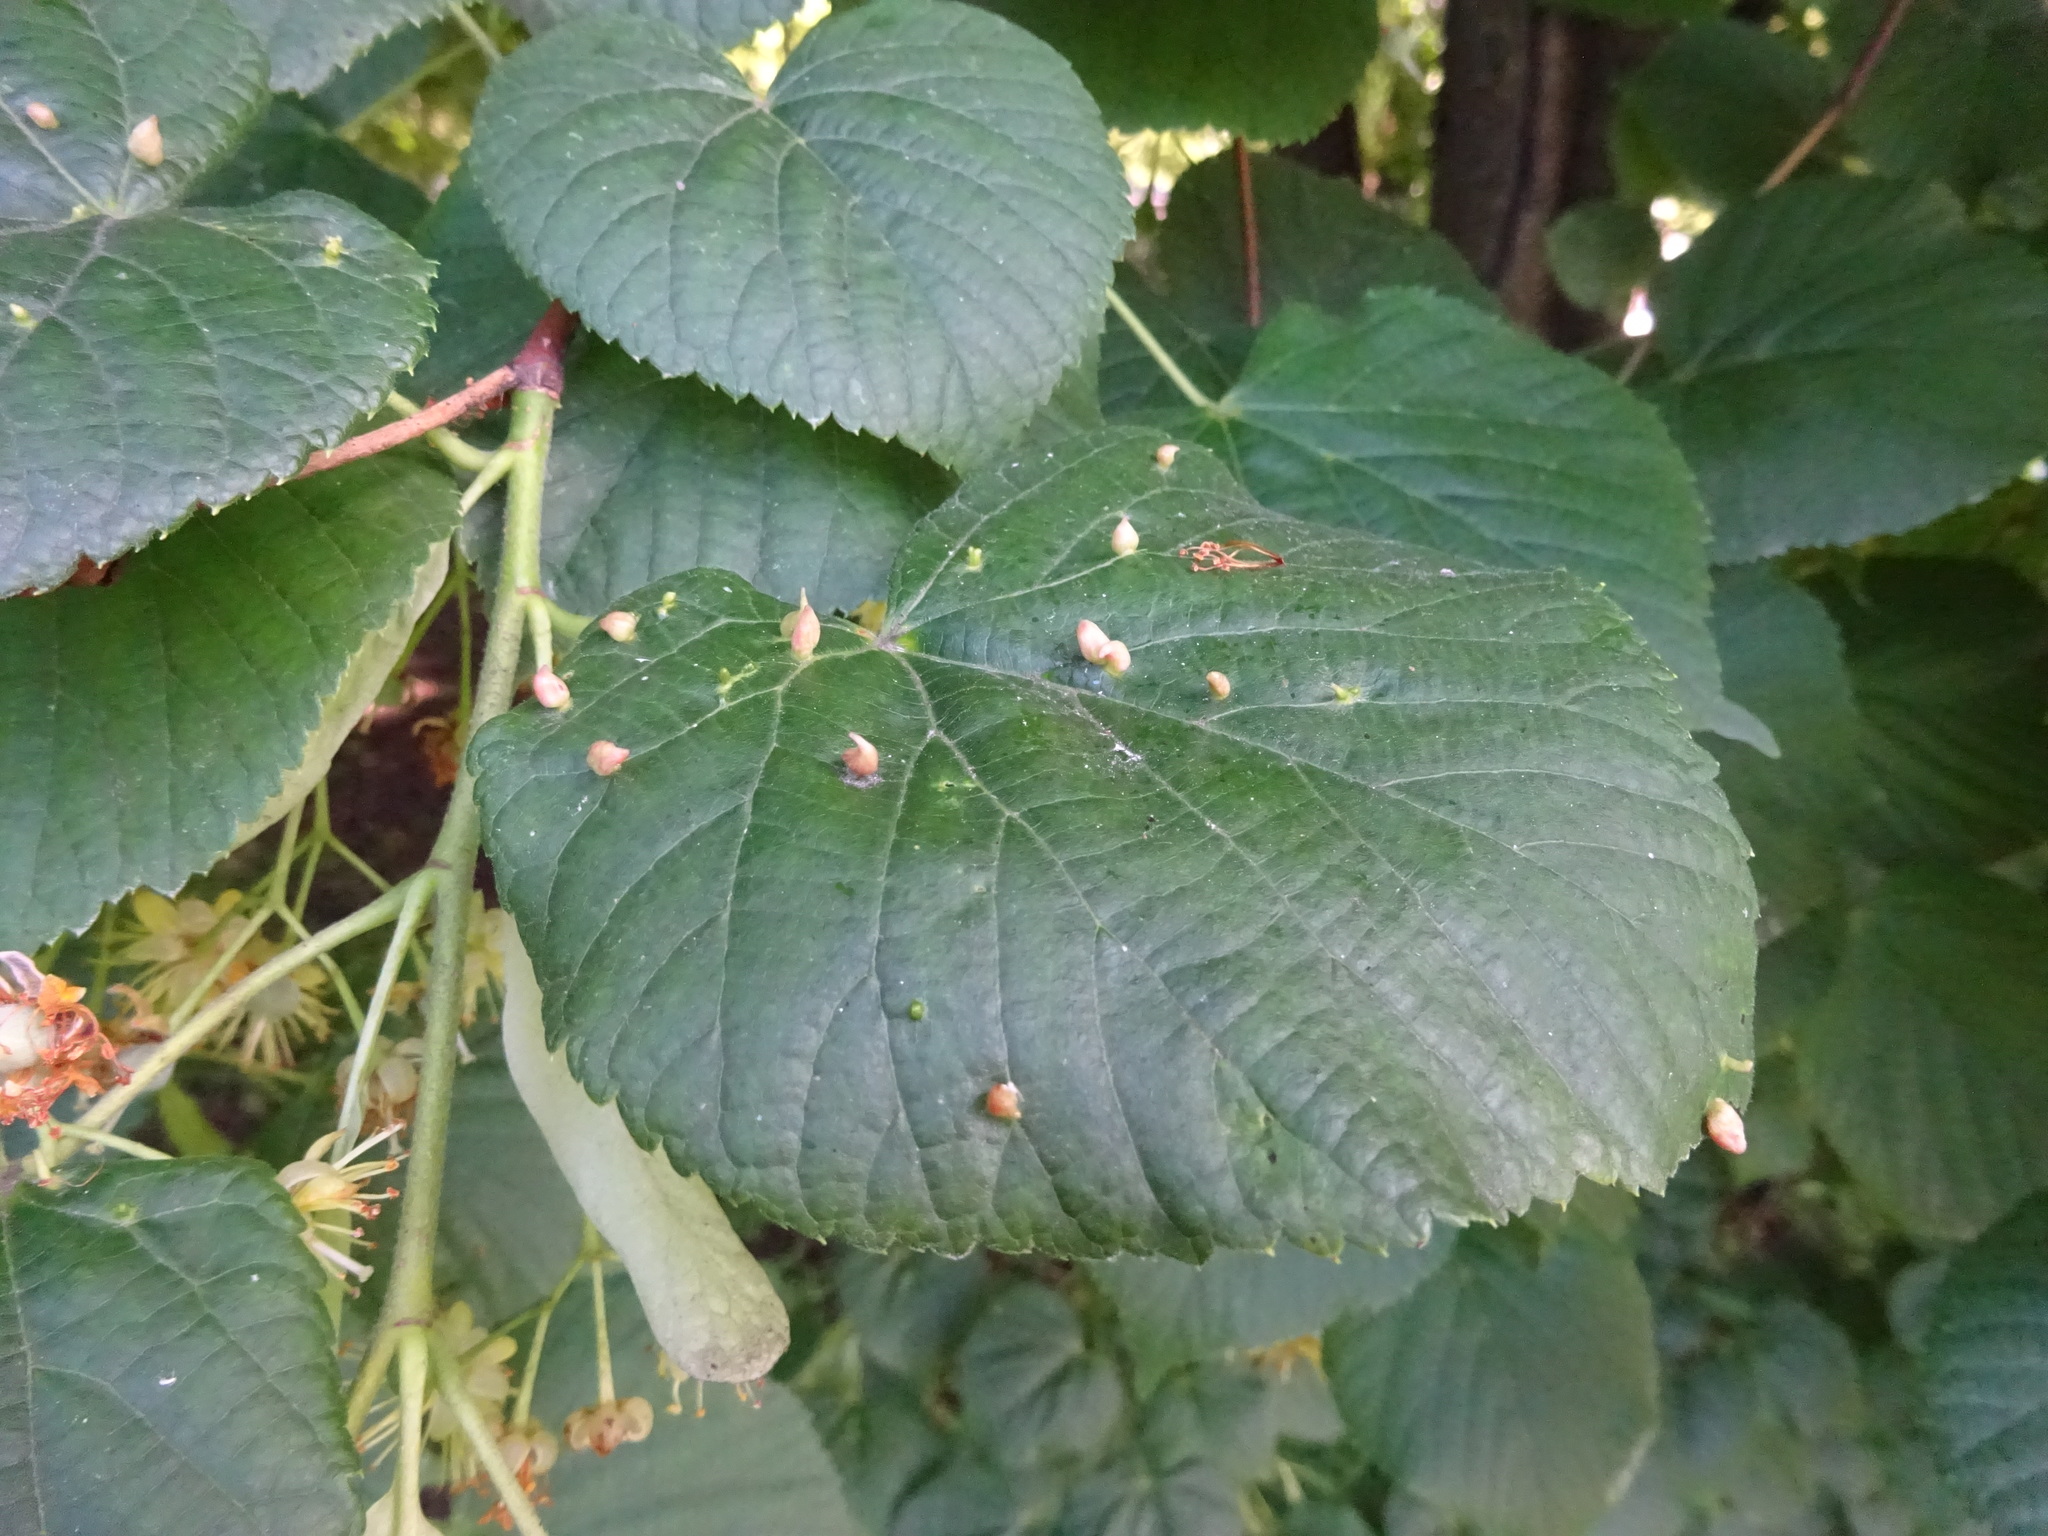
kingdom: Animalia
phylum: Arthropoda
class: Arachnida
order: Trombidiformes
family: Eriophyidae
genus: Eriophyes
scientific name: Eriophyes tiliae
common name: Red nail gall mite
